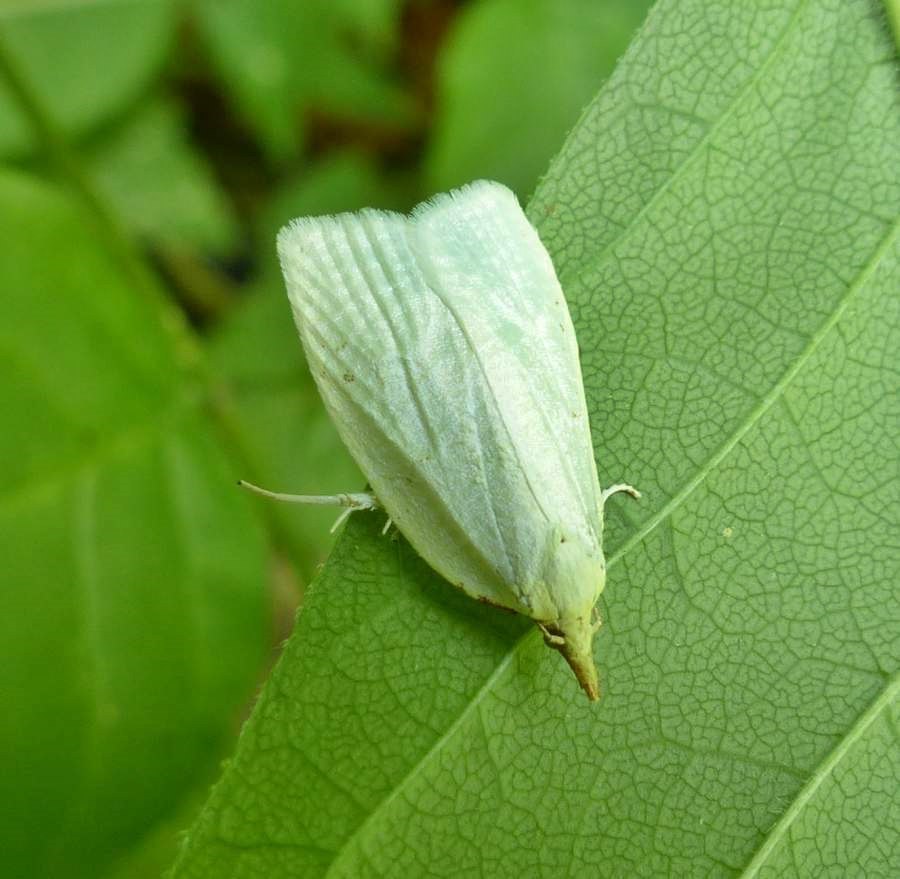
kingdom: Animalia
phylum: Arthropoda
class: Insecta
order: Lepidoptera
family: Tortricidae
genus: Cenopis
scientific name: Cenopis pettitana
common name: Maple-basswood leafroller moth
